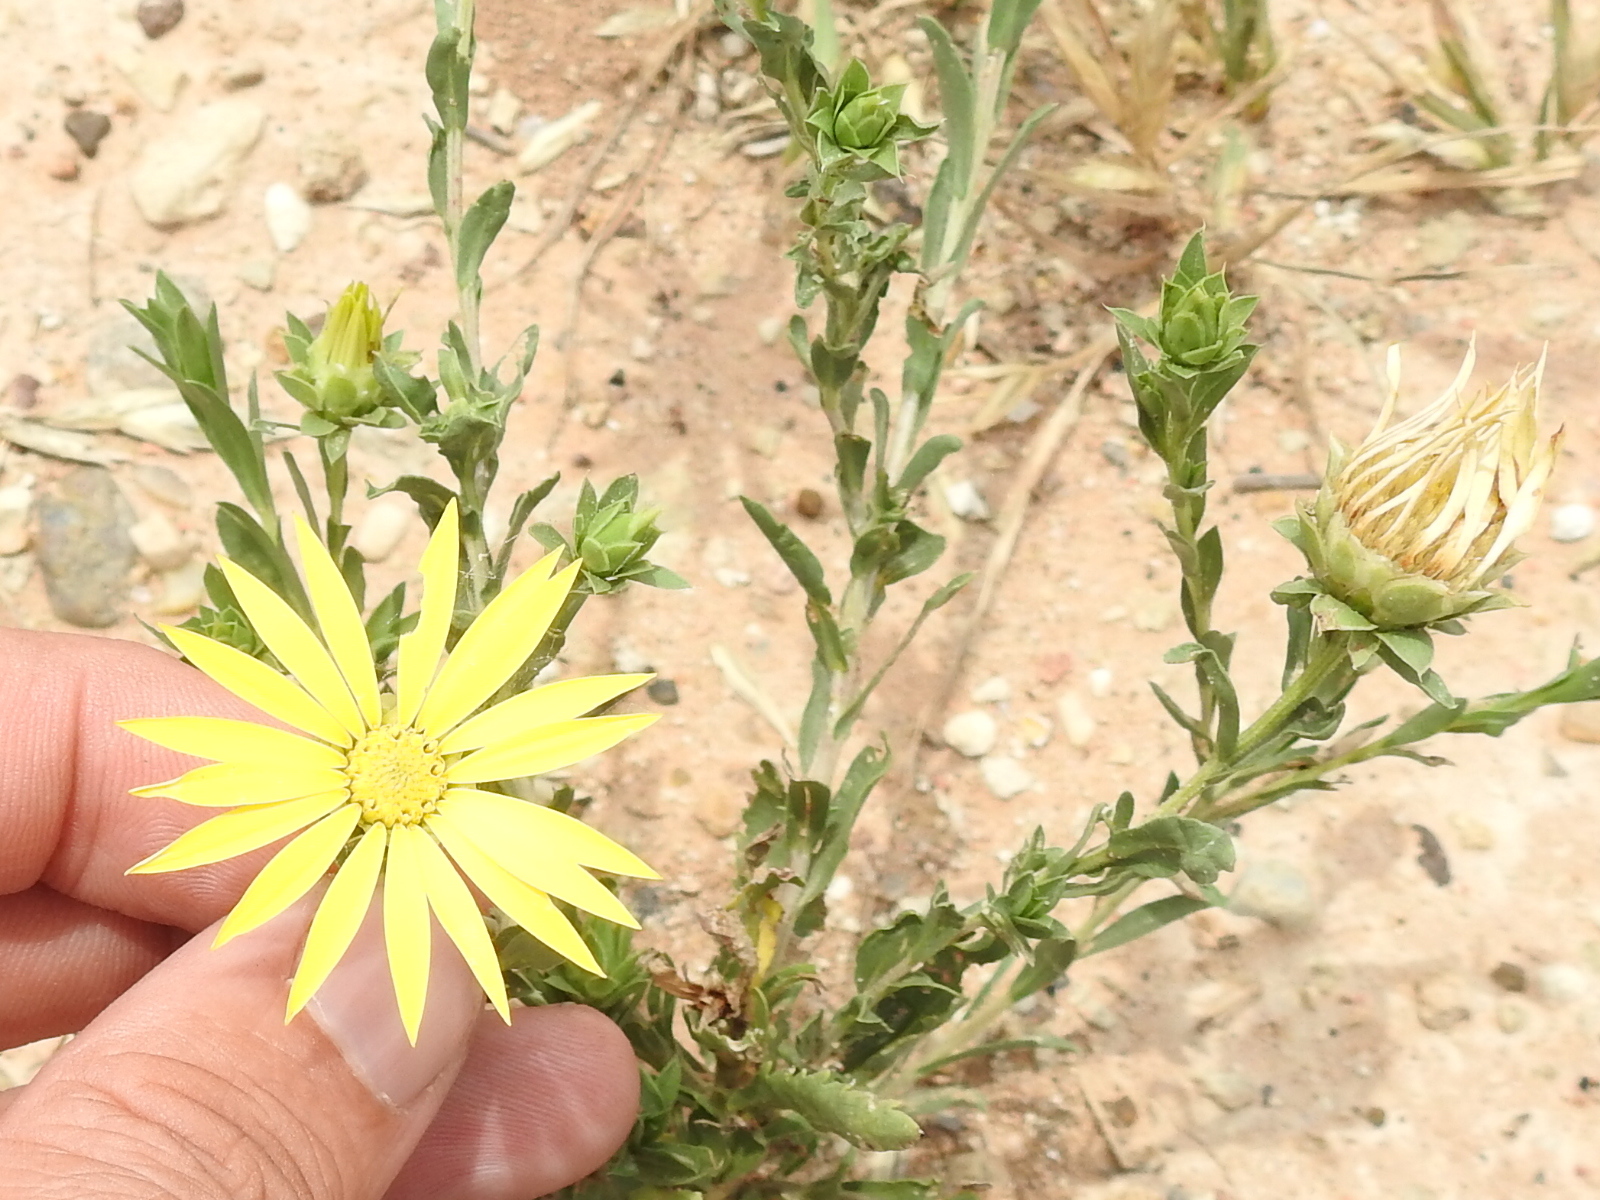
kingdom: Plantae
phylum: Tracheophyta
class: Magnoliopsida
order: Asterales
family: Asteraceae
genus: Xanthisma
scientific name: Xanthisma texanum
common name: Texas sleepy daisy
